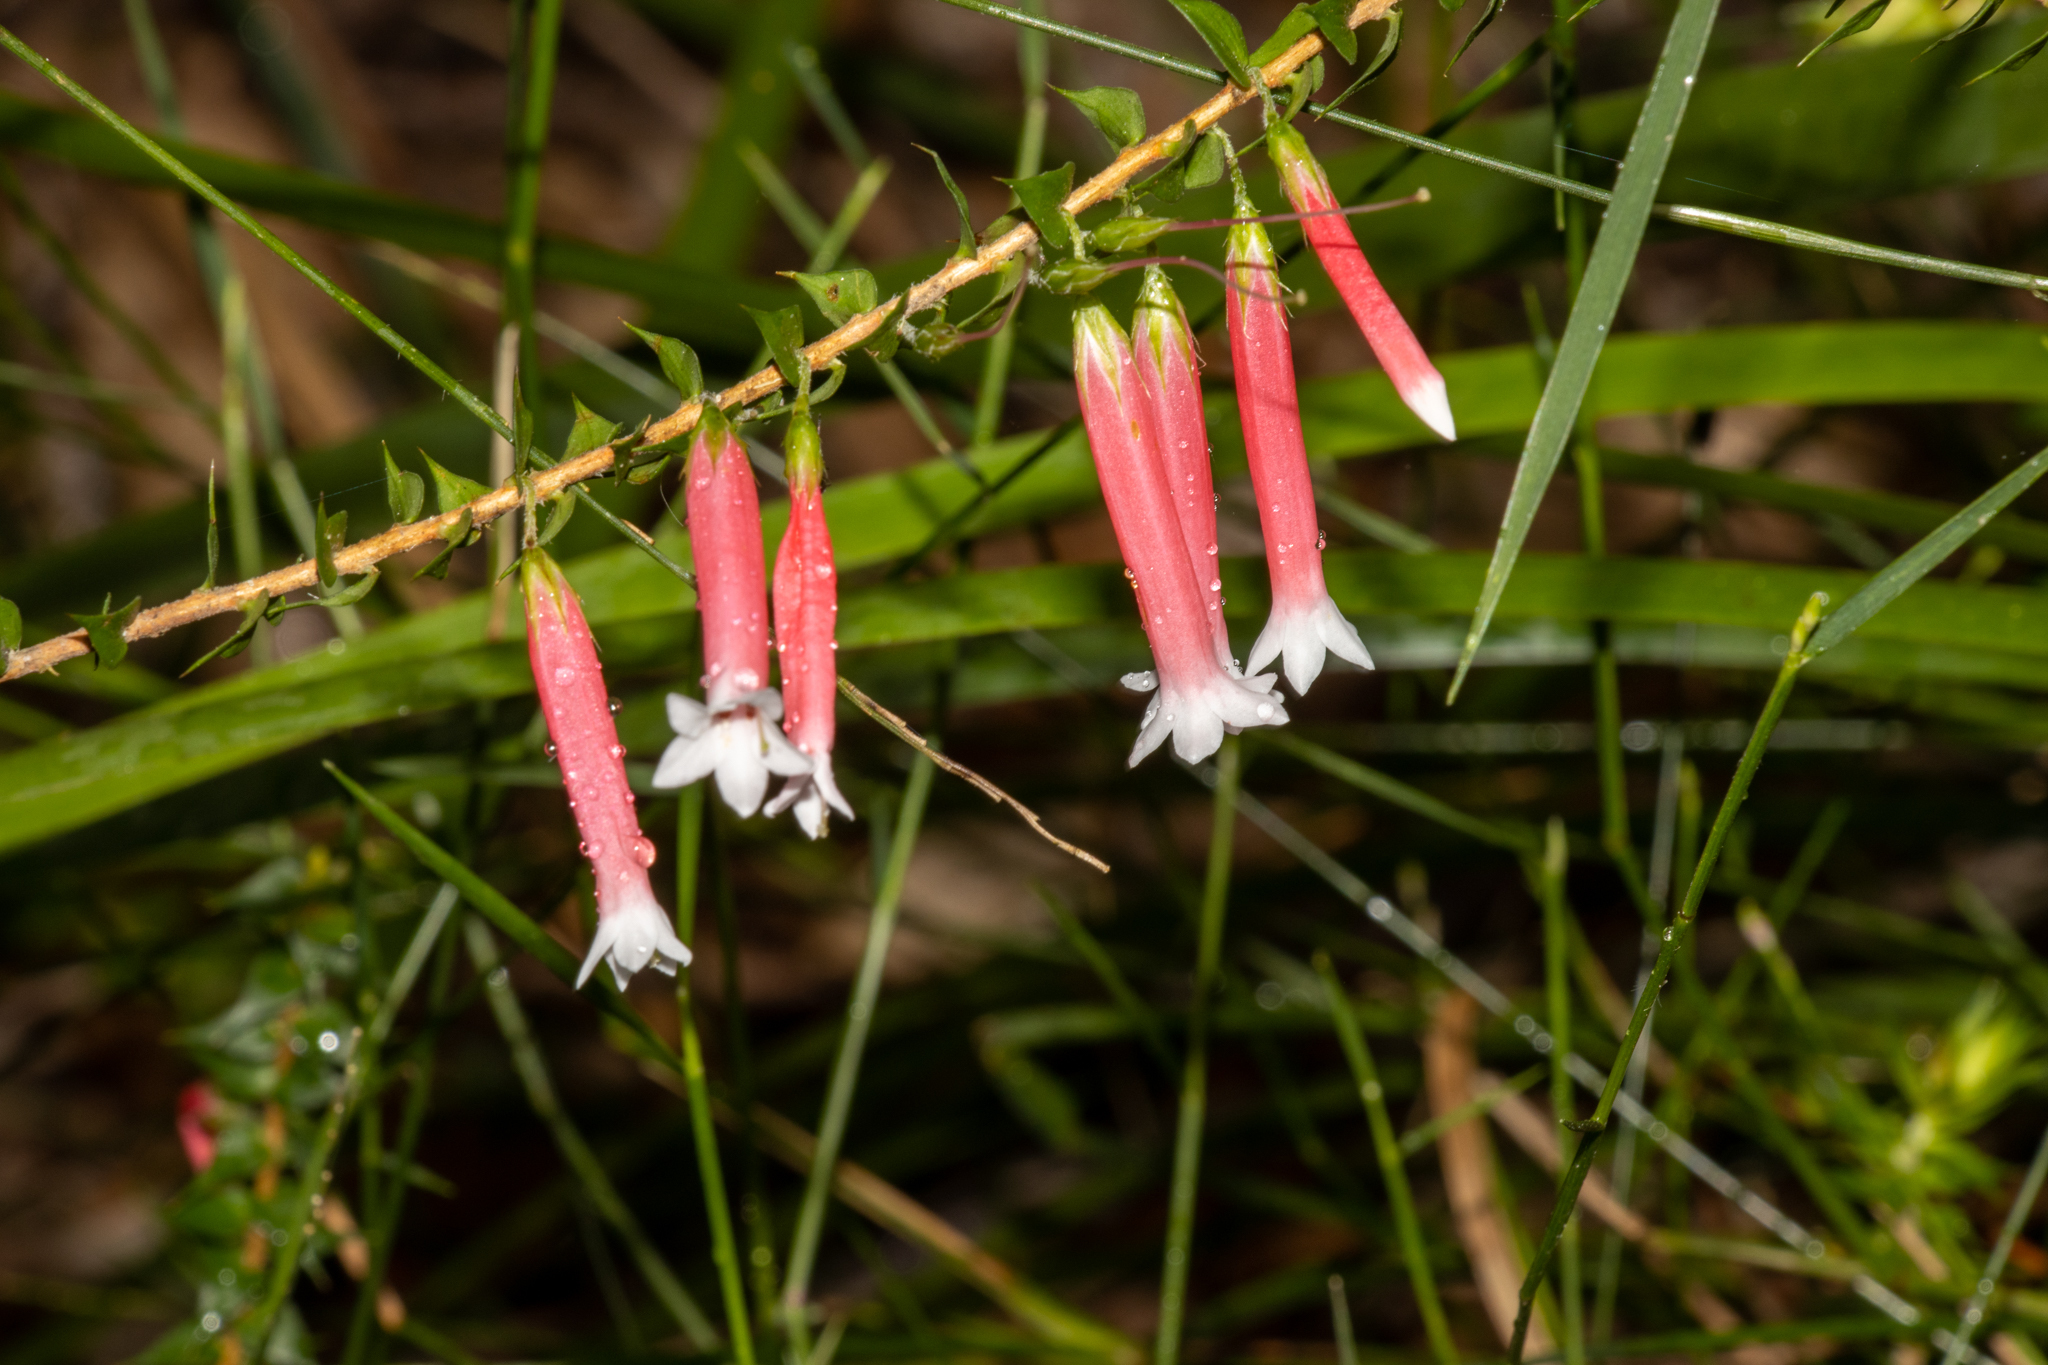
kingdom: Plantae
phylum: Tracheophyta
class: Magnoliopsida
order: Ericales
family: Ericaceae
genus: Epacris
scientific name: Epacris longiflora
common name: Fuchsia-heath
